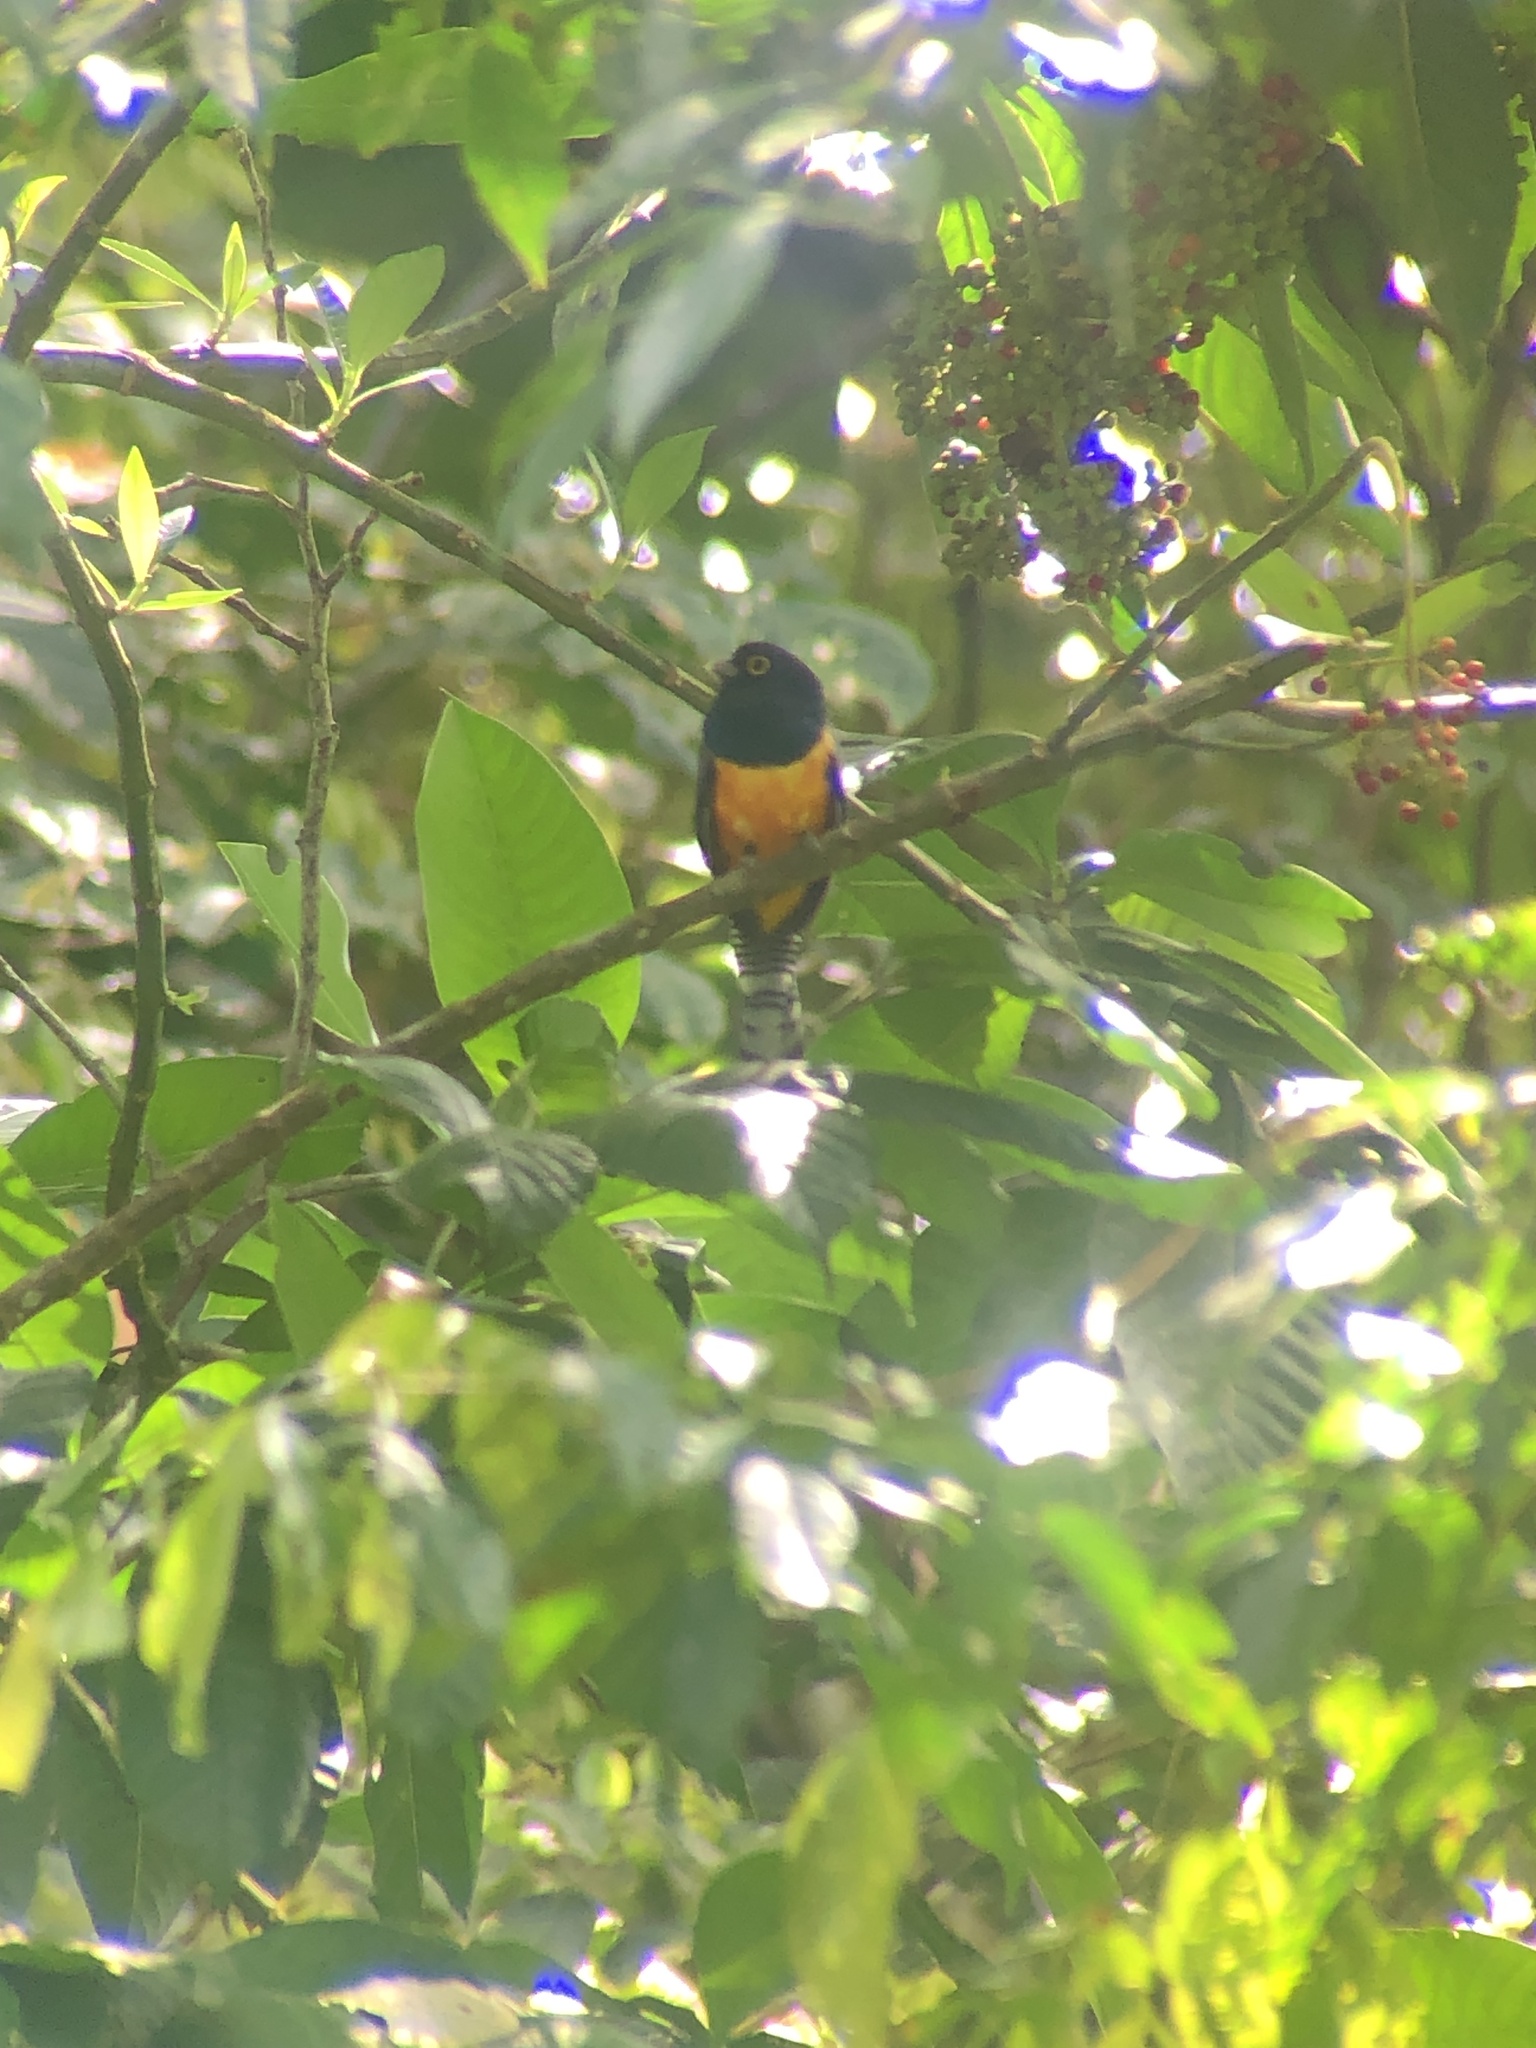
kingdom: Animalia
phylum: Chordata
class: Aves
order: Trogoniformes
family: Trogonidae
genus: Trogon
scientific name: Trogon caligatus
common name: Gartered trogon
